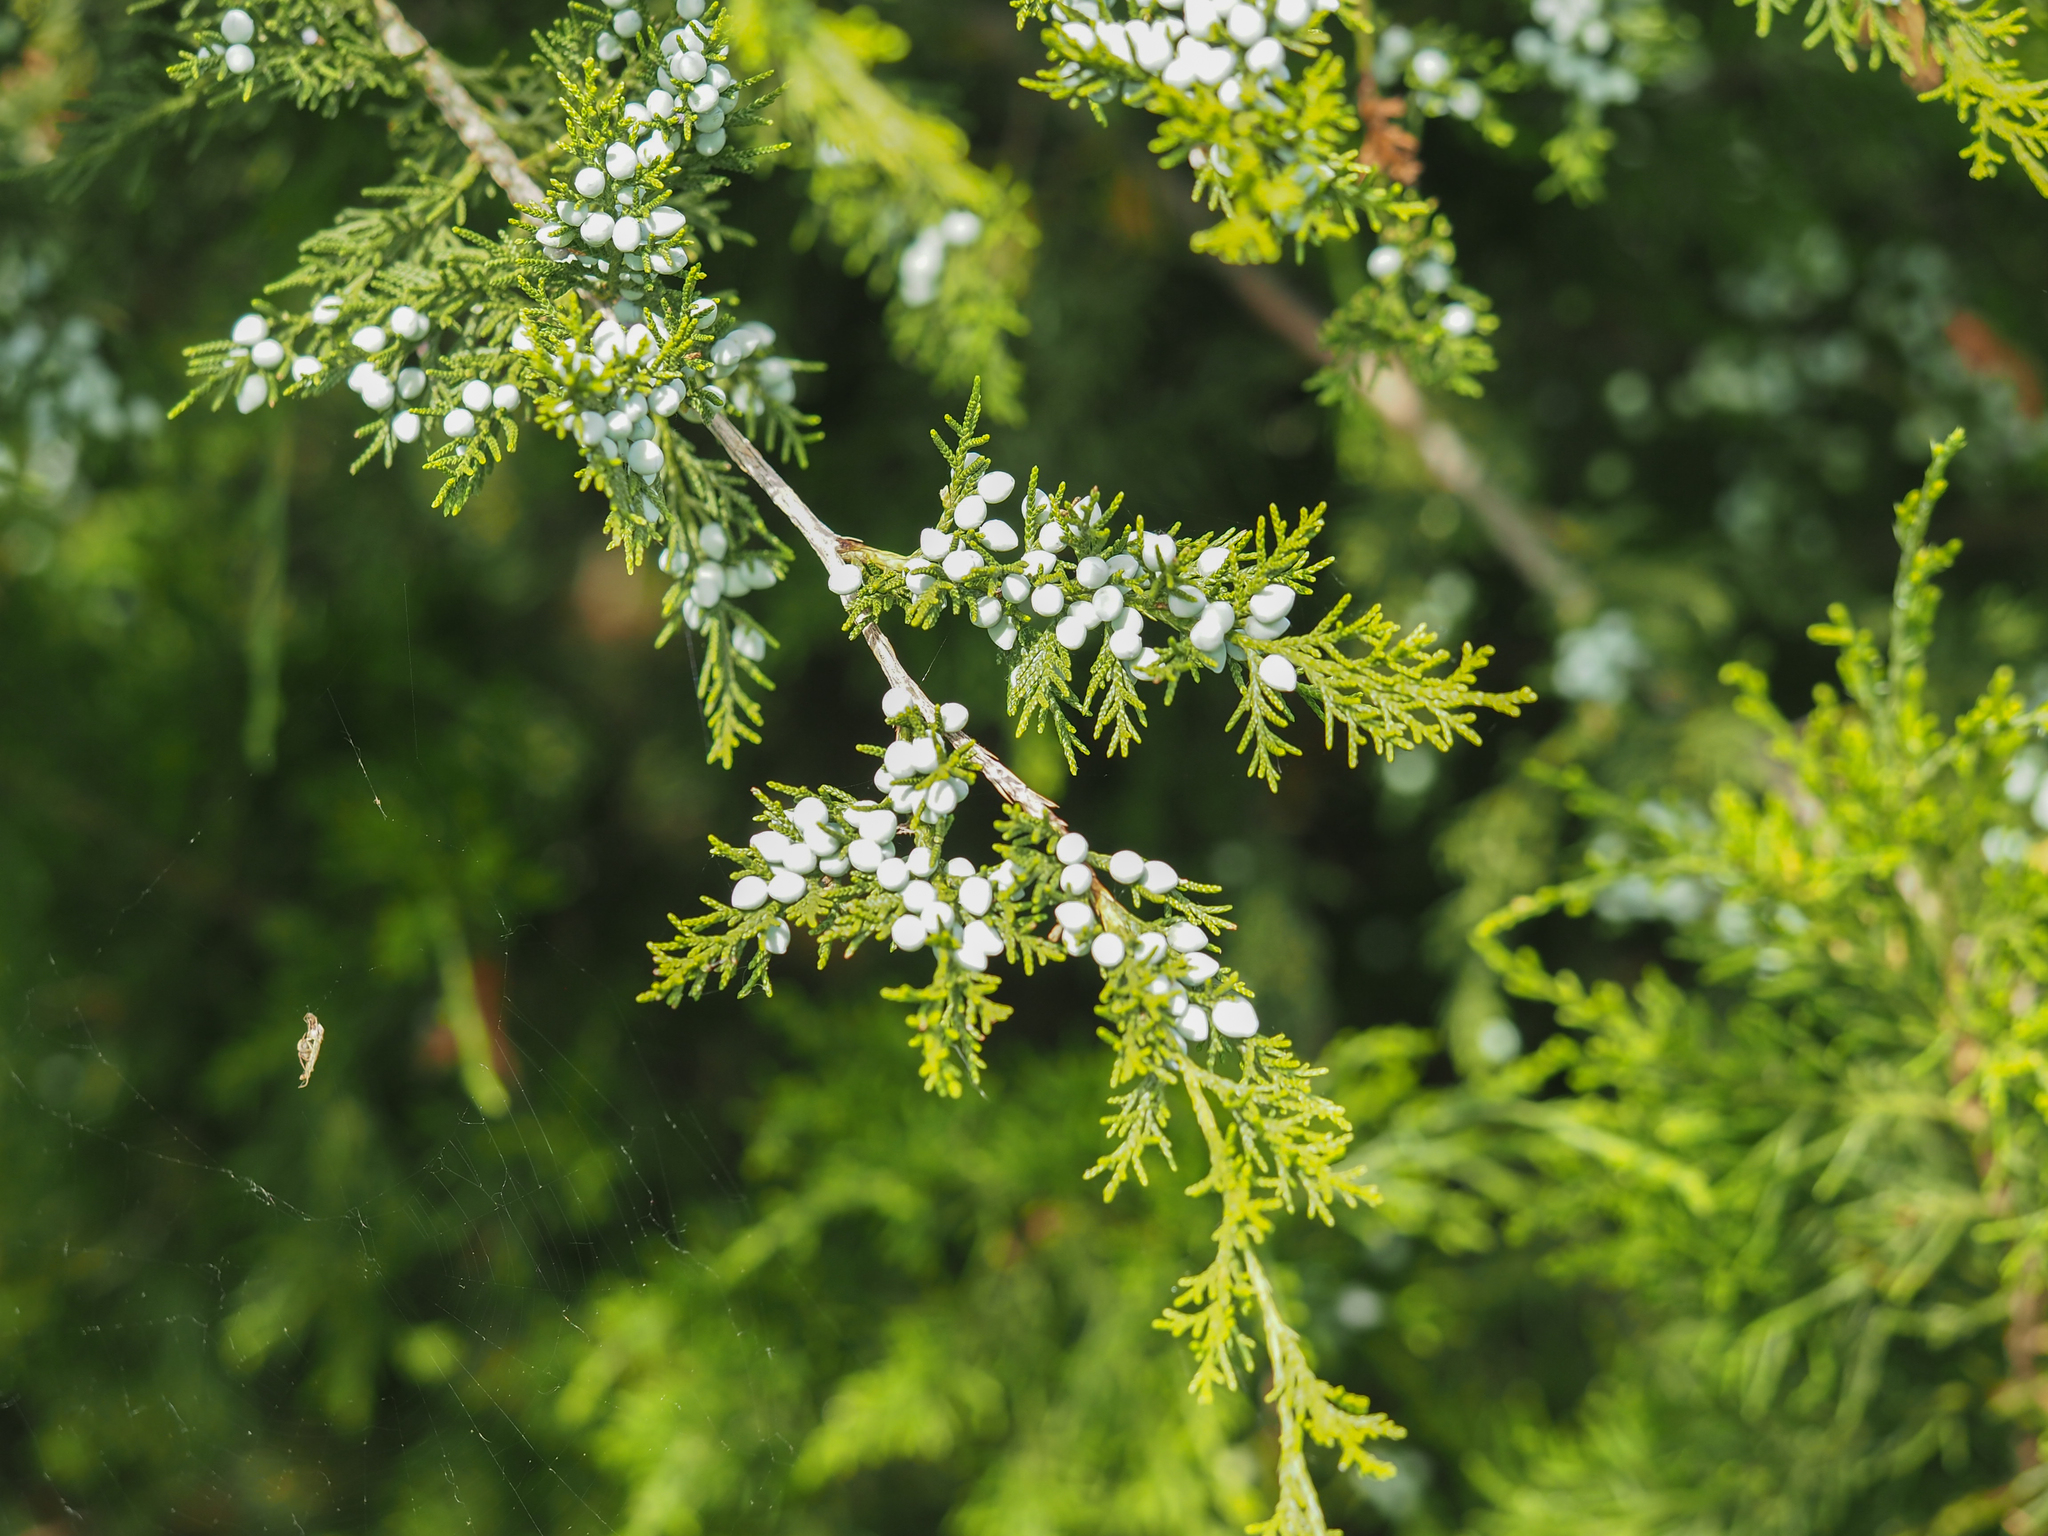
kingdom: Plantae
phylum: Tracheophyta
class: Pinopsida
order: Pinales
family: Cupressaceae
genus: Juniperus
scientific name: Juniperus virginiana
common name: Red juniper
